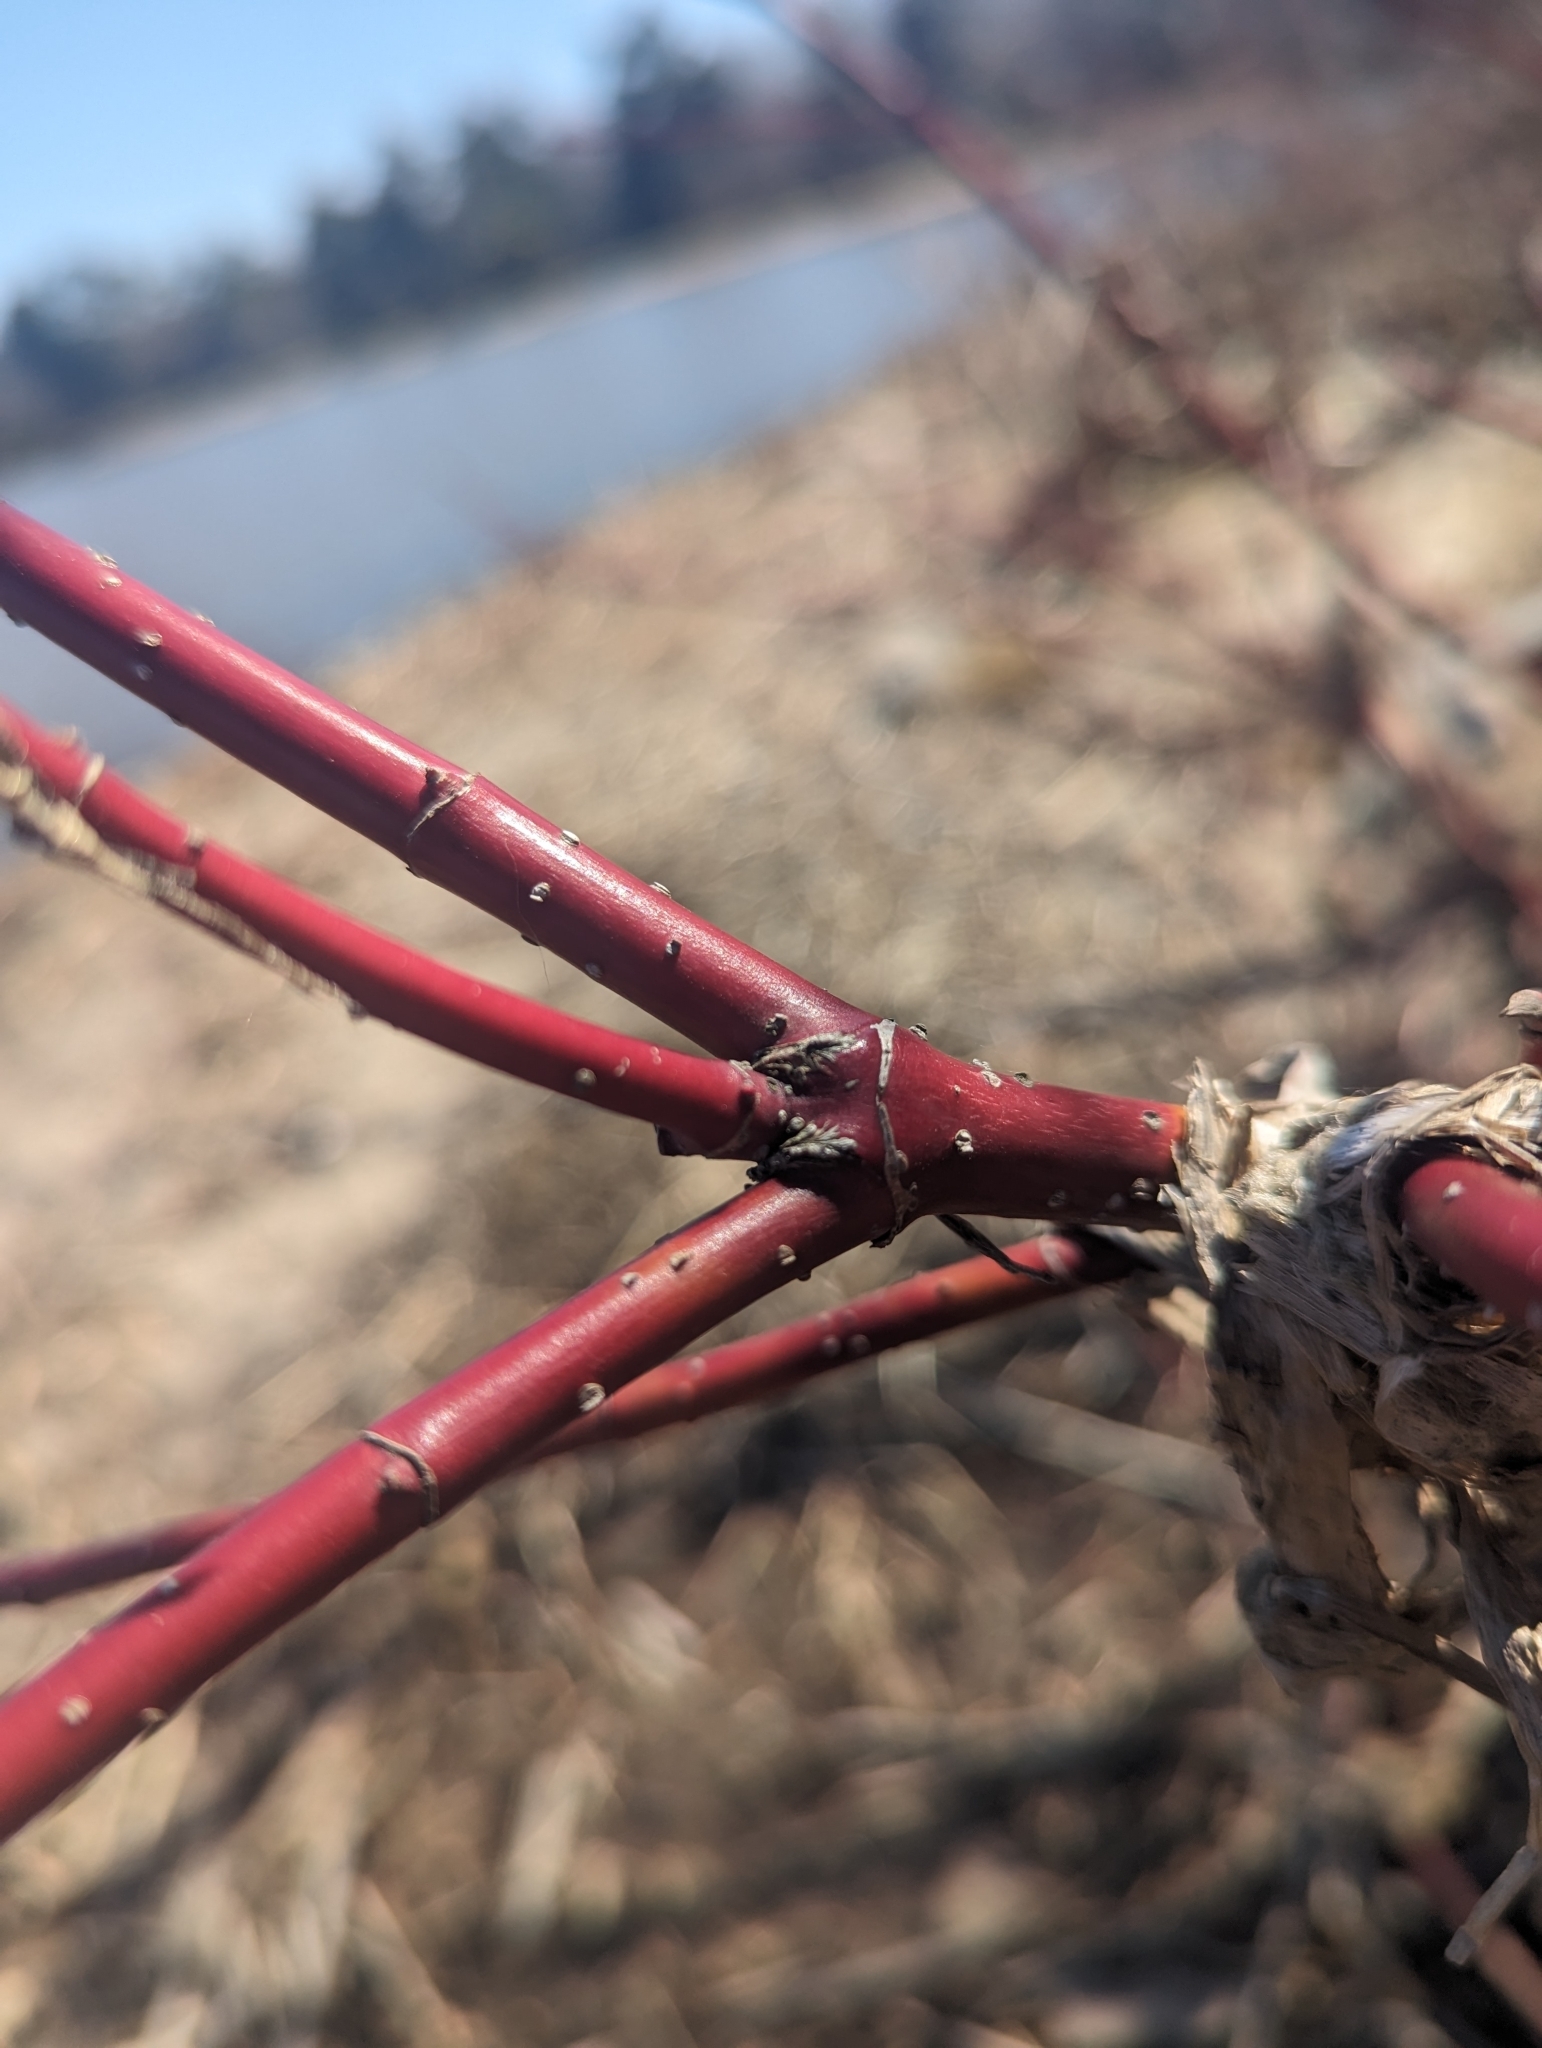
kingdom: Plantae
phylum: Tracheophyta
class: Magnoliopsida
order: Cornales
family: Cornaceae
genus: Cornus
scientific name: Cornus sericea
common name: Red-osier dogwood
